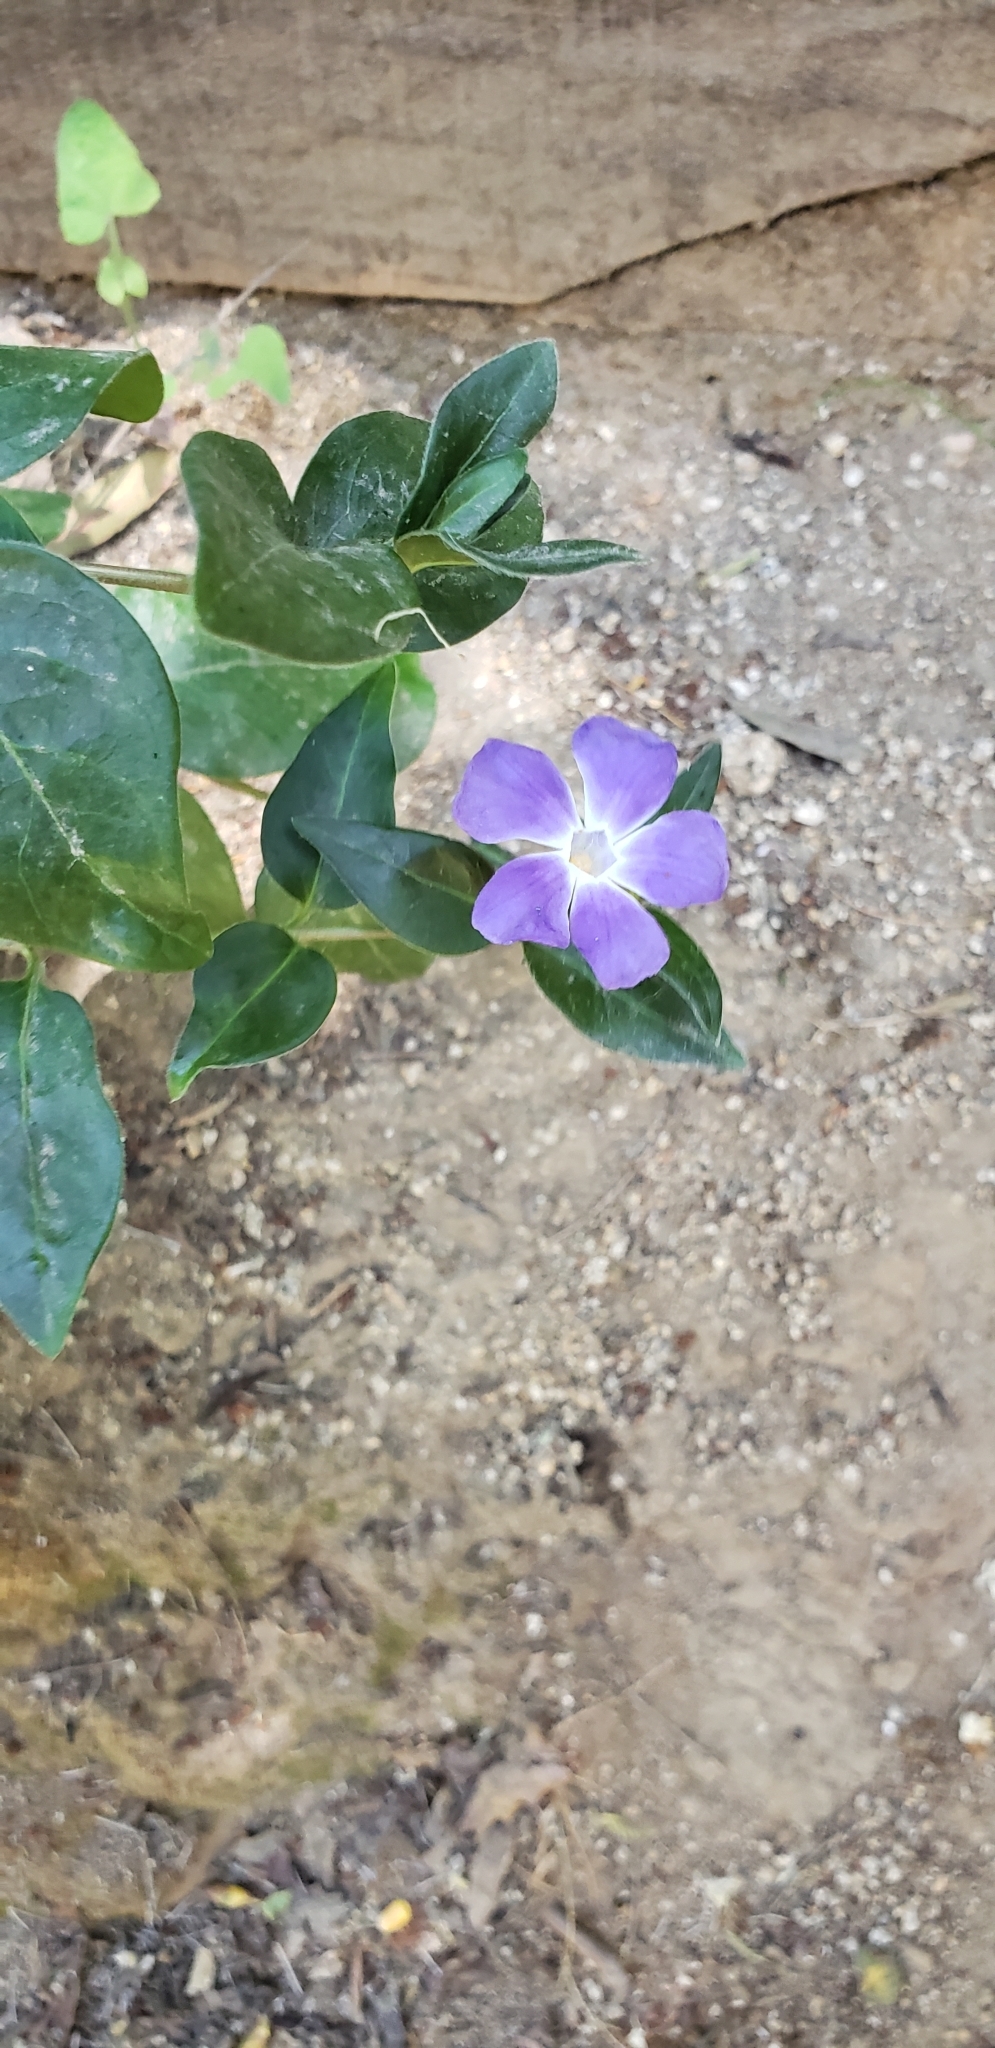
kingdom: Plantae
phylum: Tracheophyta
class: Magnoliopsida
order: Gentianales
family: Apocynaceae
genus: Vinca
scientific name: Vinca major
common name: Greater periwinkle
